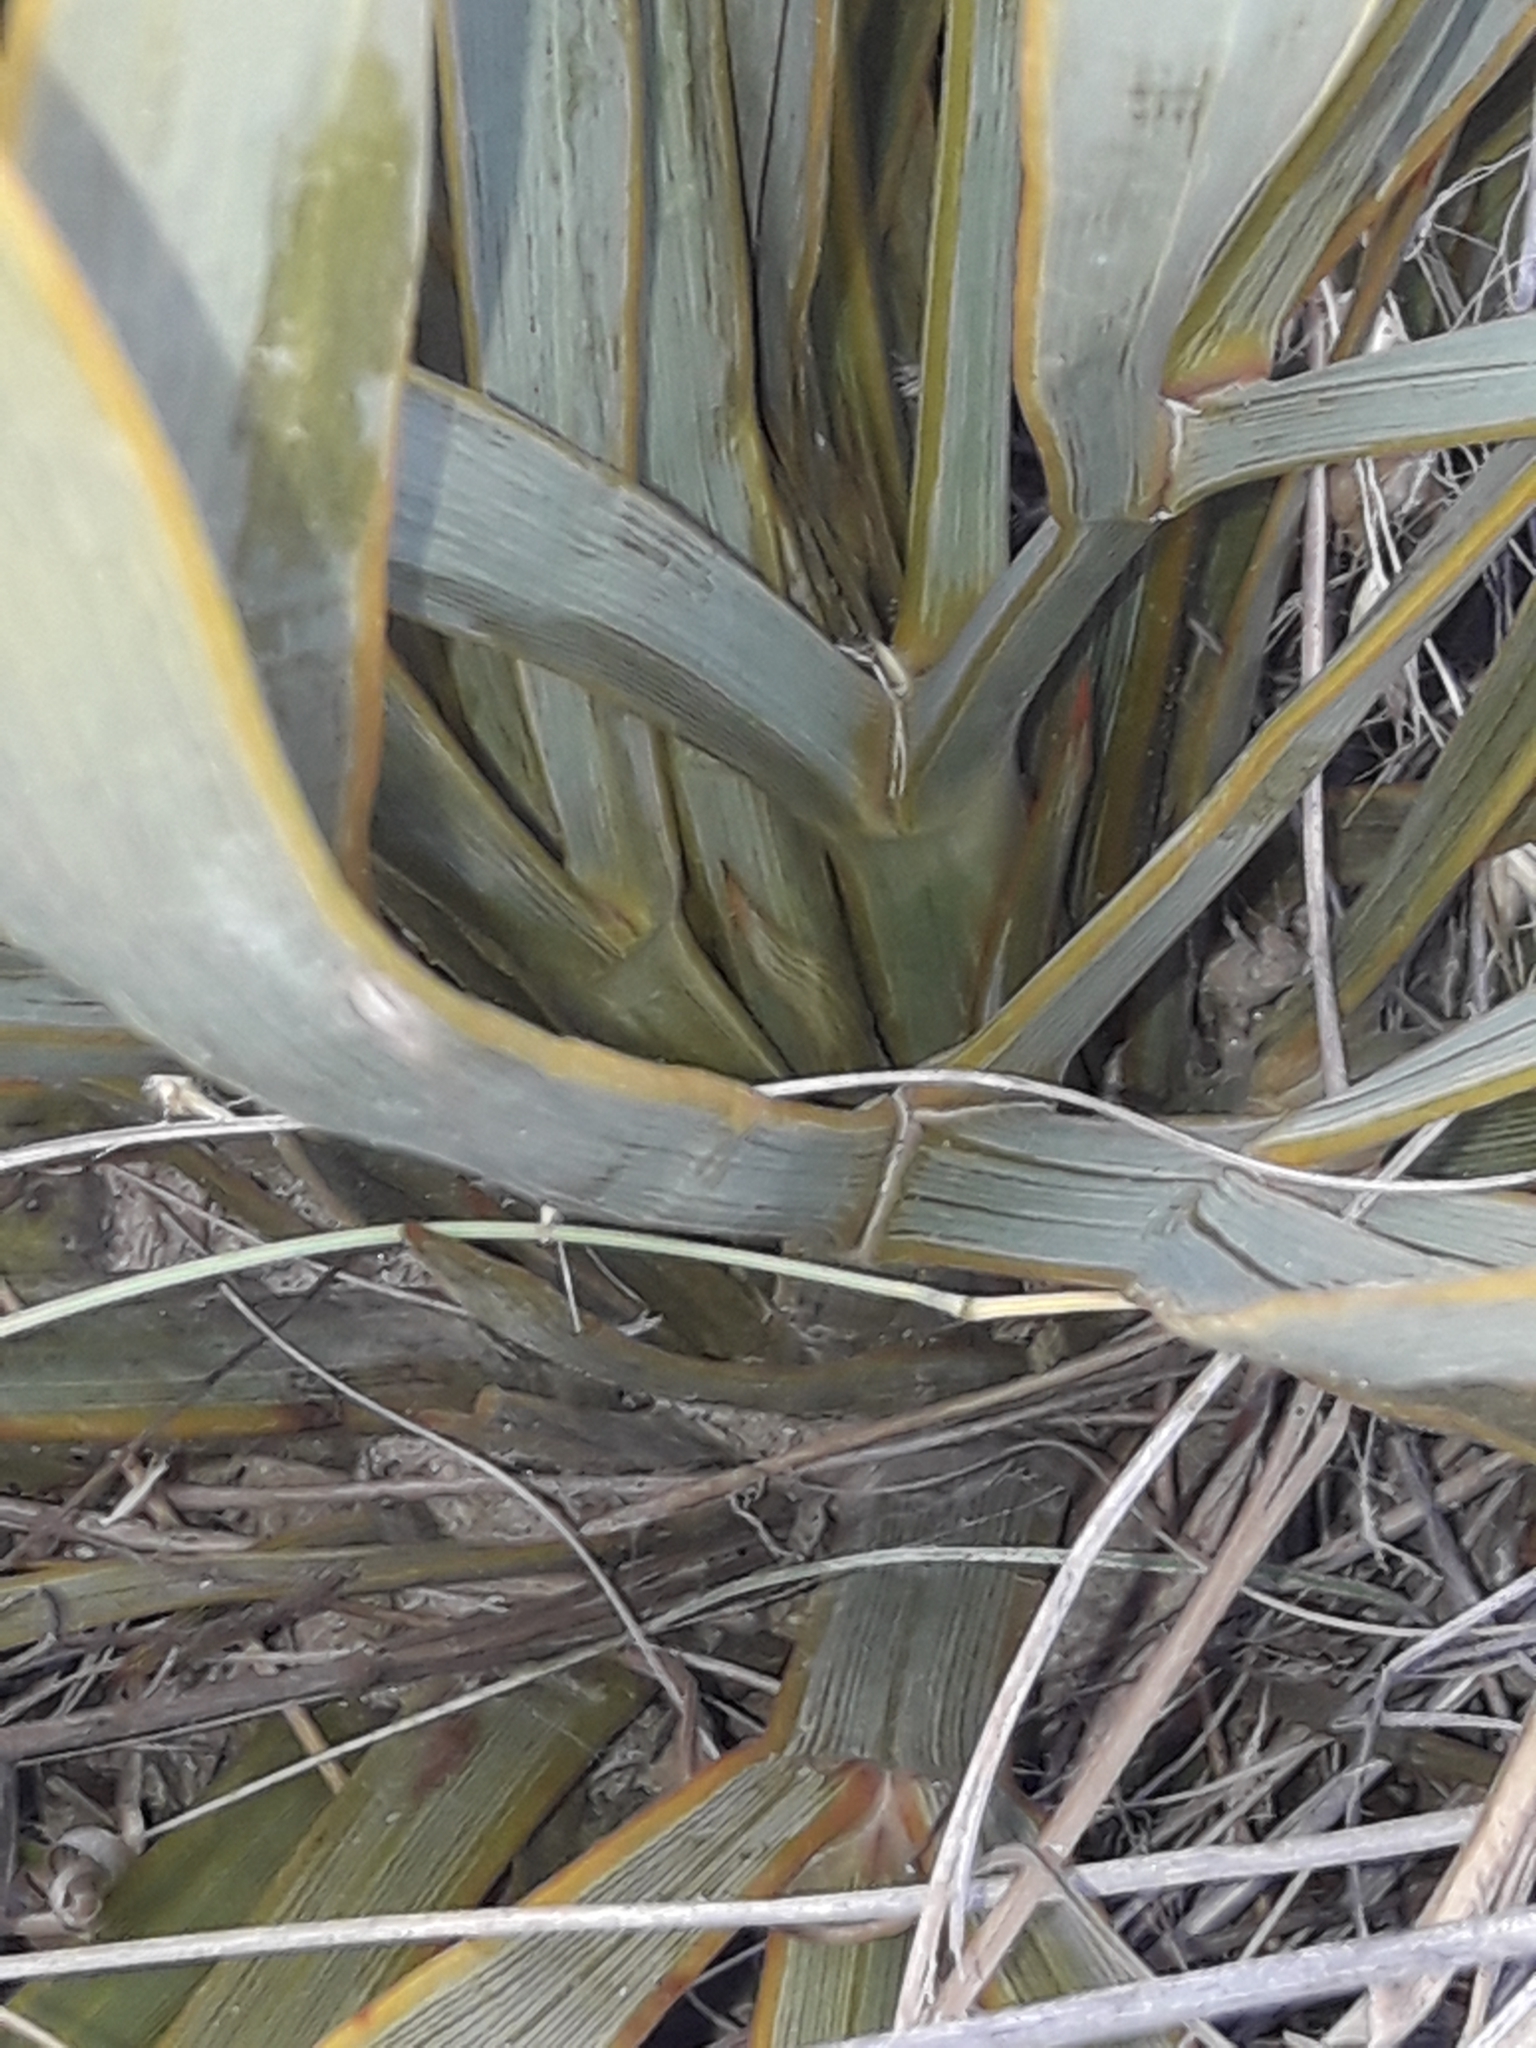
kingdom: Plantae
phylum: Tracheophyta
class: Magnoliopsida
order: Apiales
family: Apiaceae
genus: Aciphylla
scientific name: Aciphylla aurea
